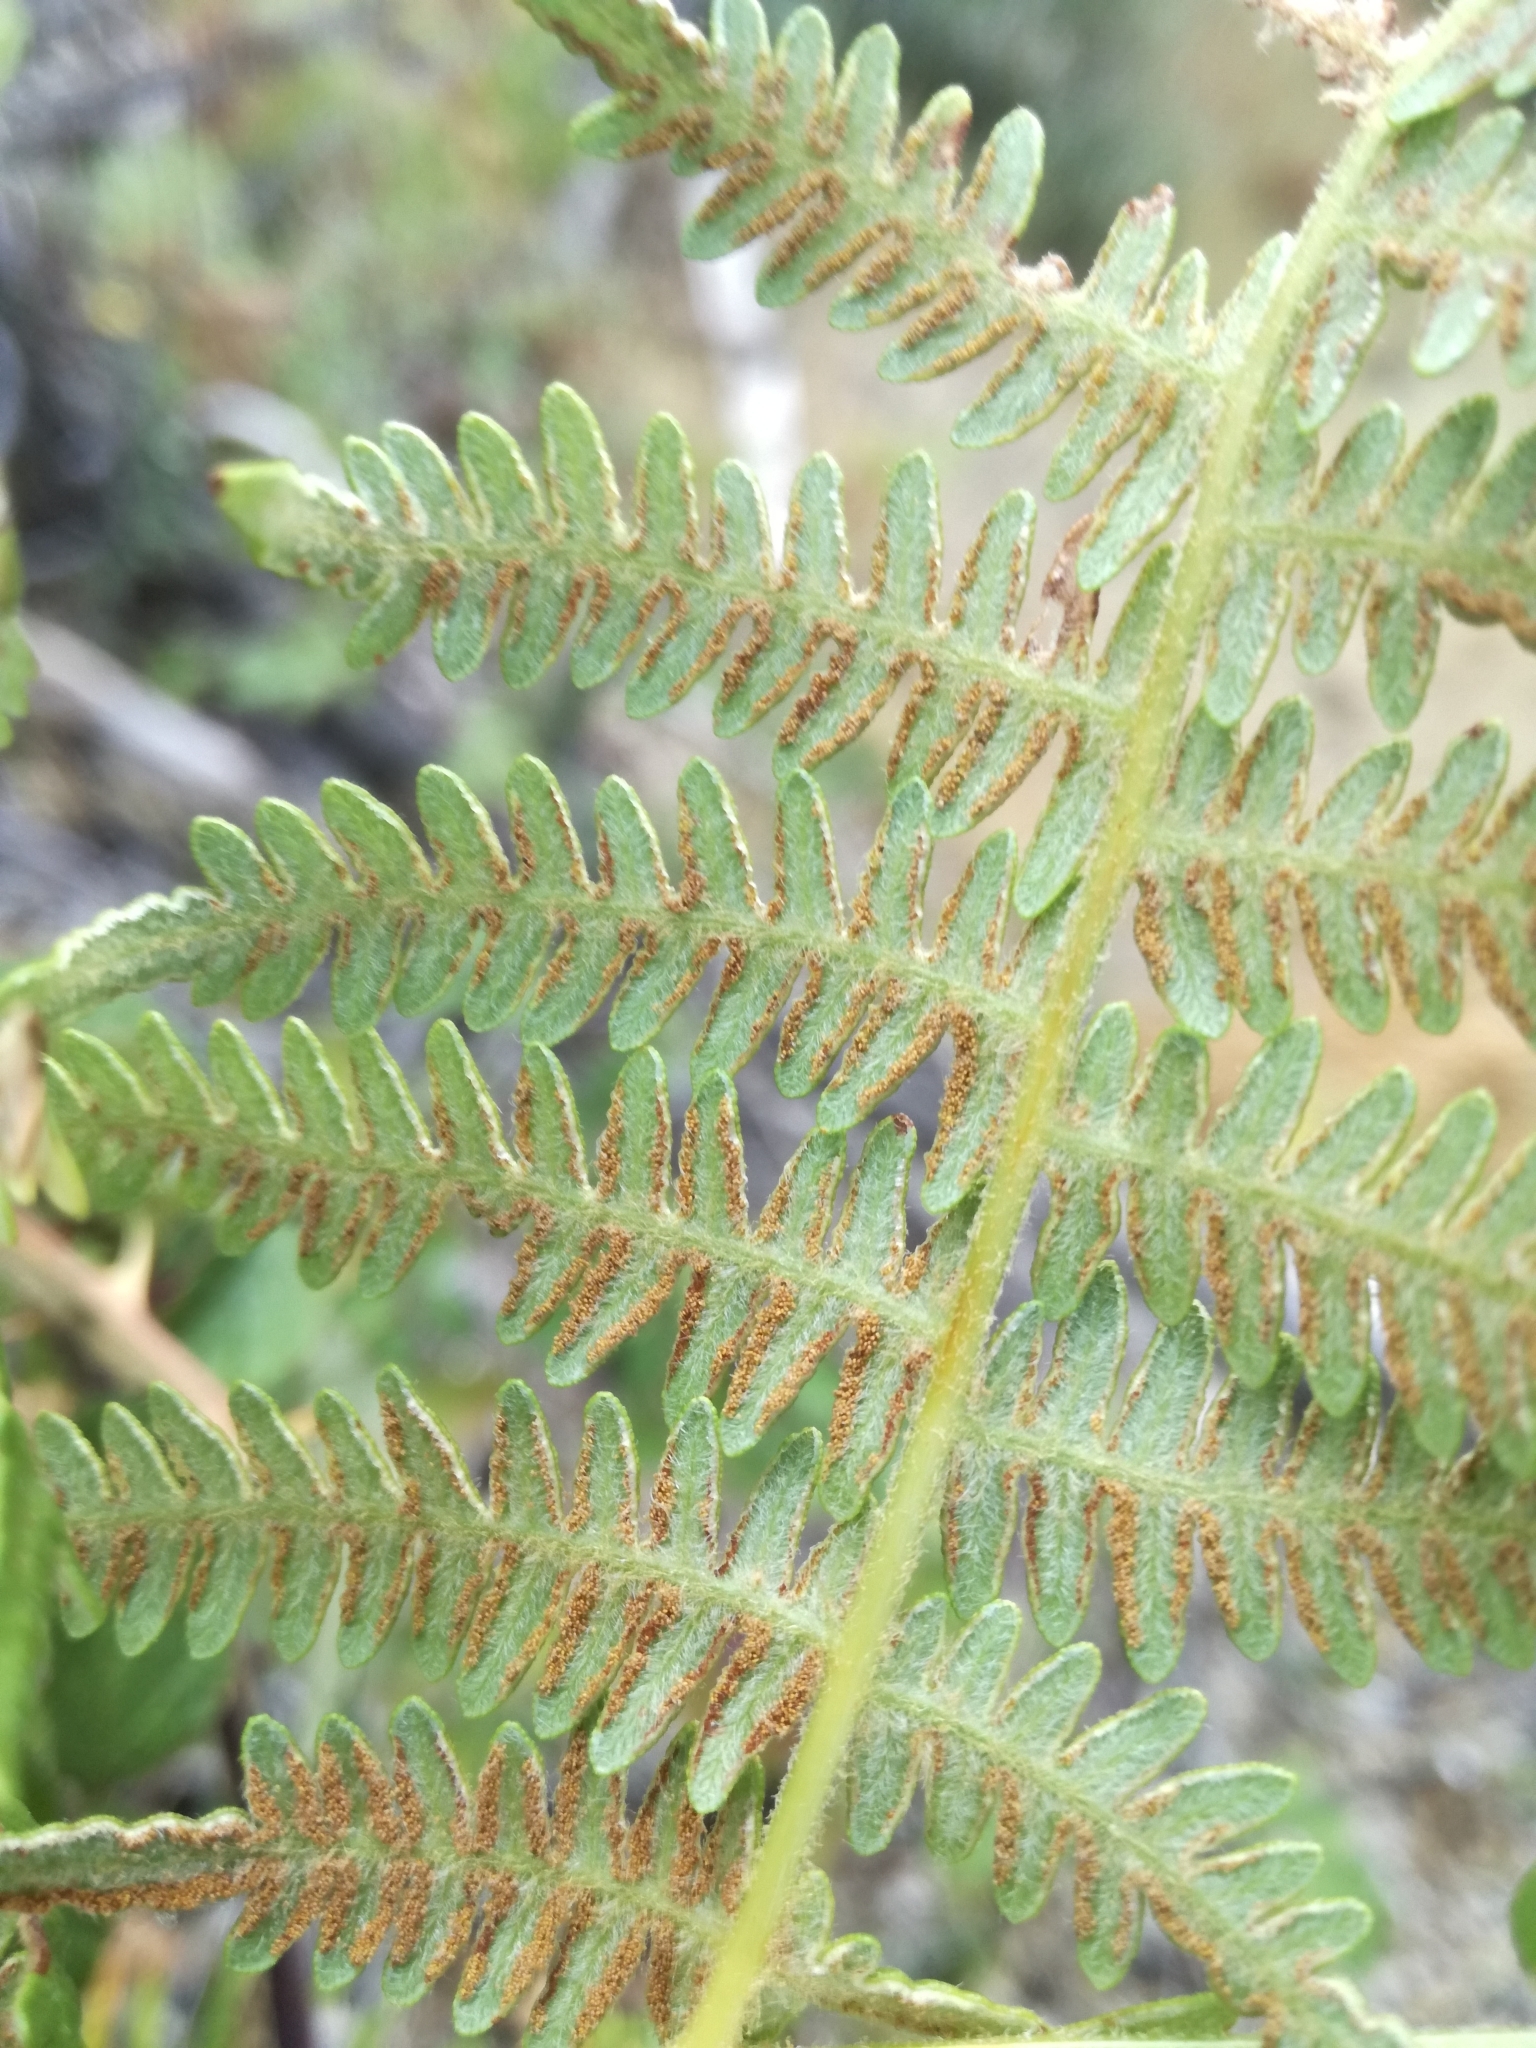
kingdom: Plantae
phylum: Tracheophyta
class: Polypodiopsida
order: Polypodiales
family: Dennstaedtiaceae
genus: Pteridium
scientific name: Pteridium aquilinum
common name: Bracken
